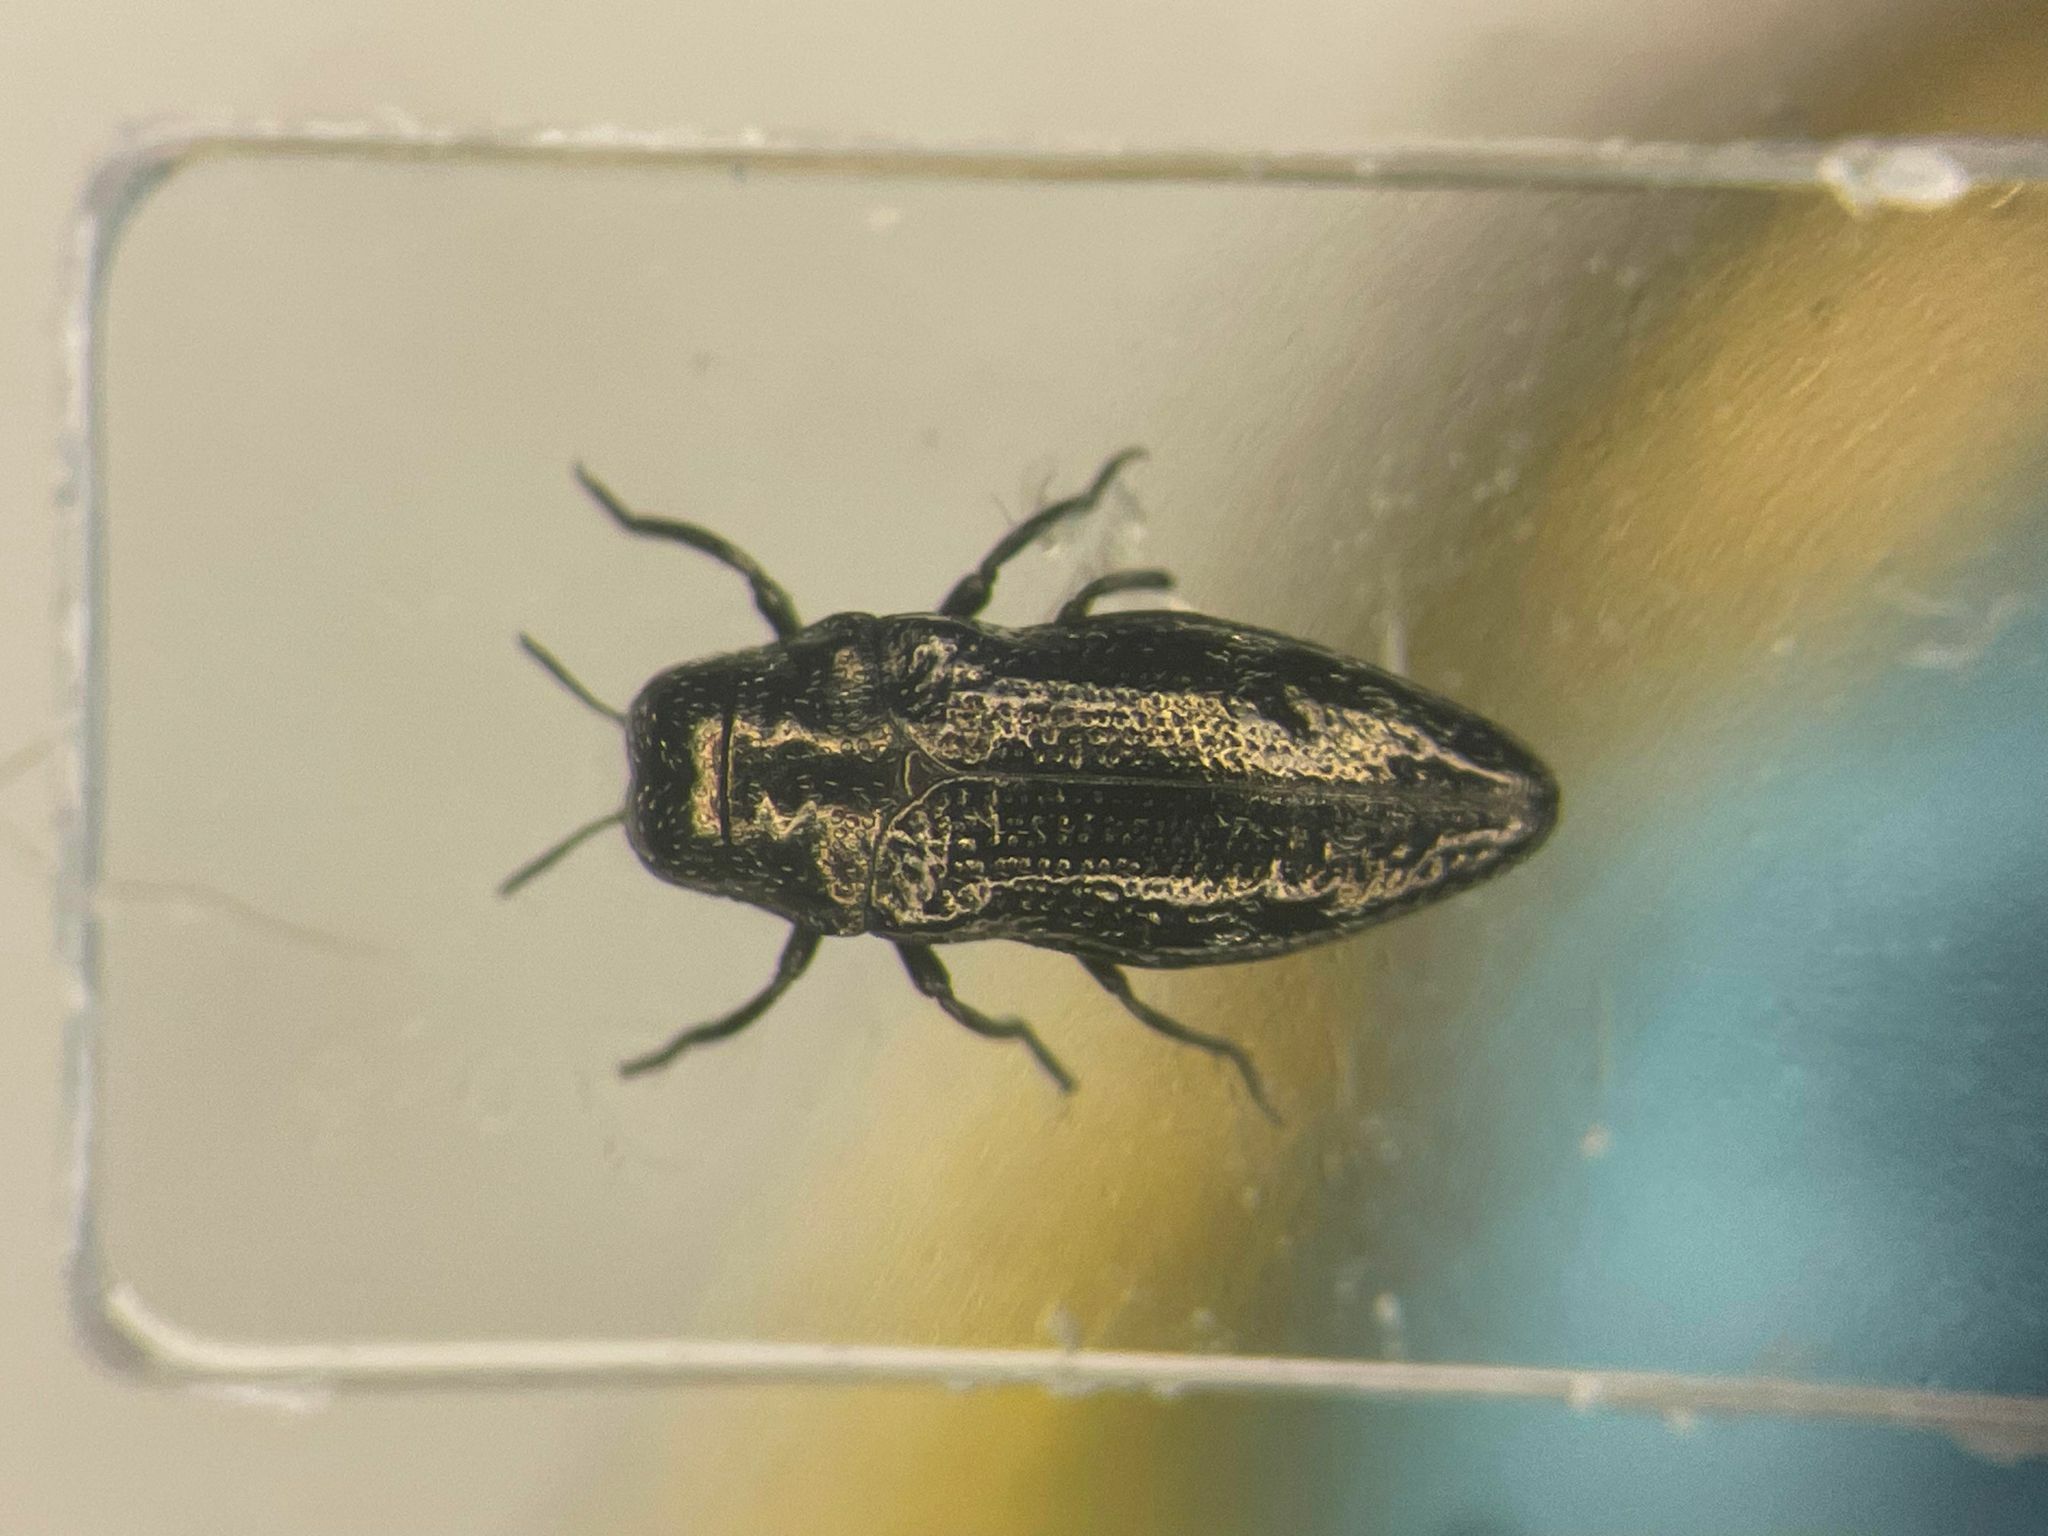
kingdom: Animalia
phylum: Arthropoda
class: Insecta
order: Coleoptera
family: Buprestidae
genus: Taphrocerus
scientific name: Taphrocerus gracilis
